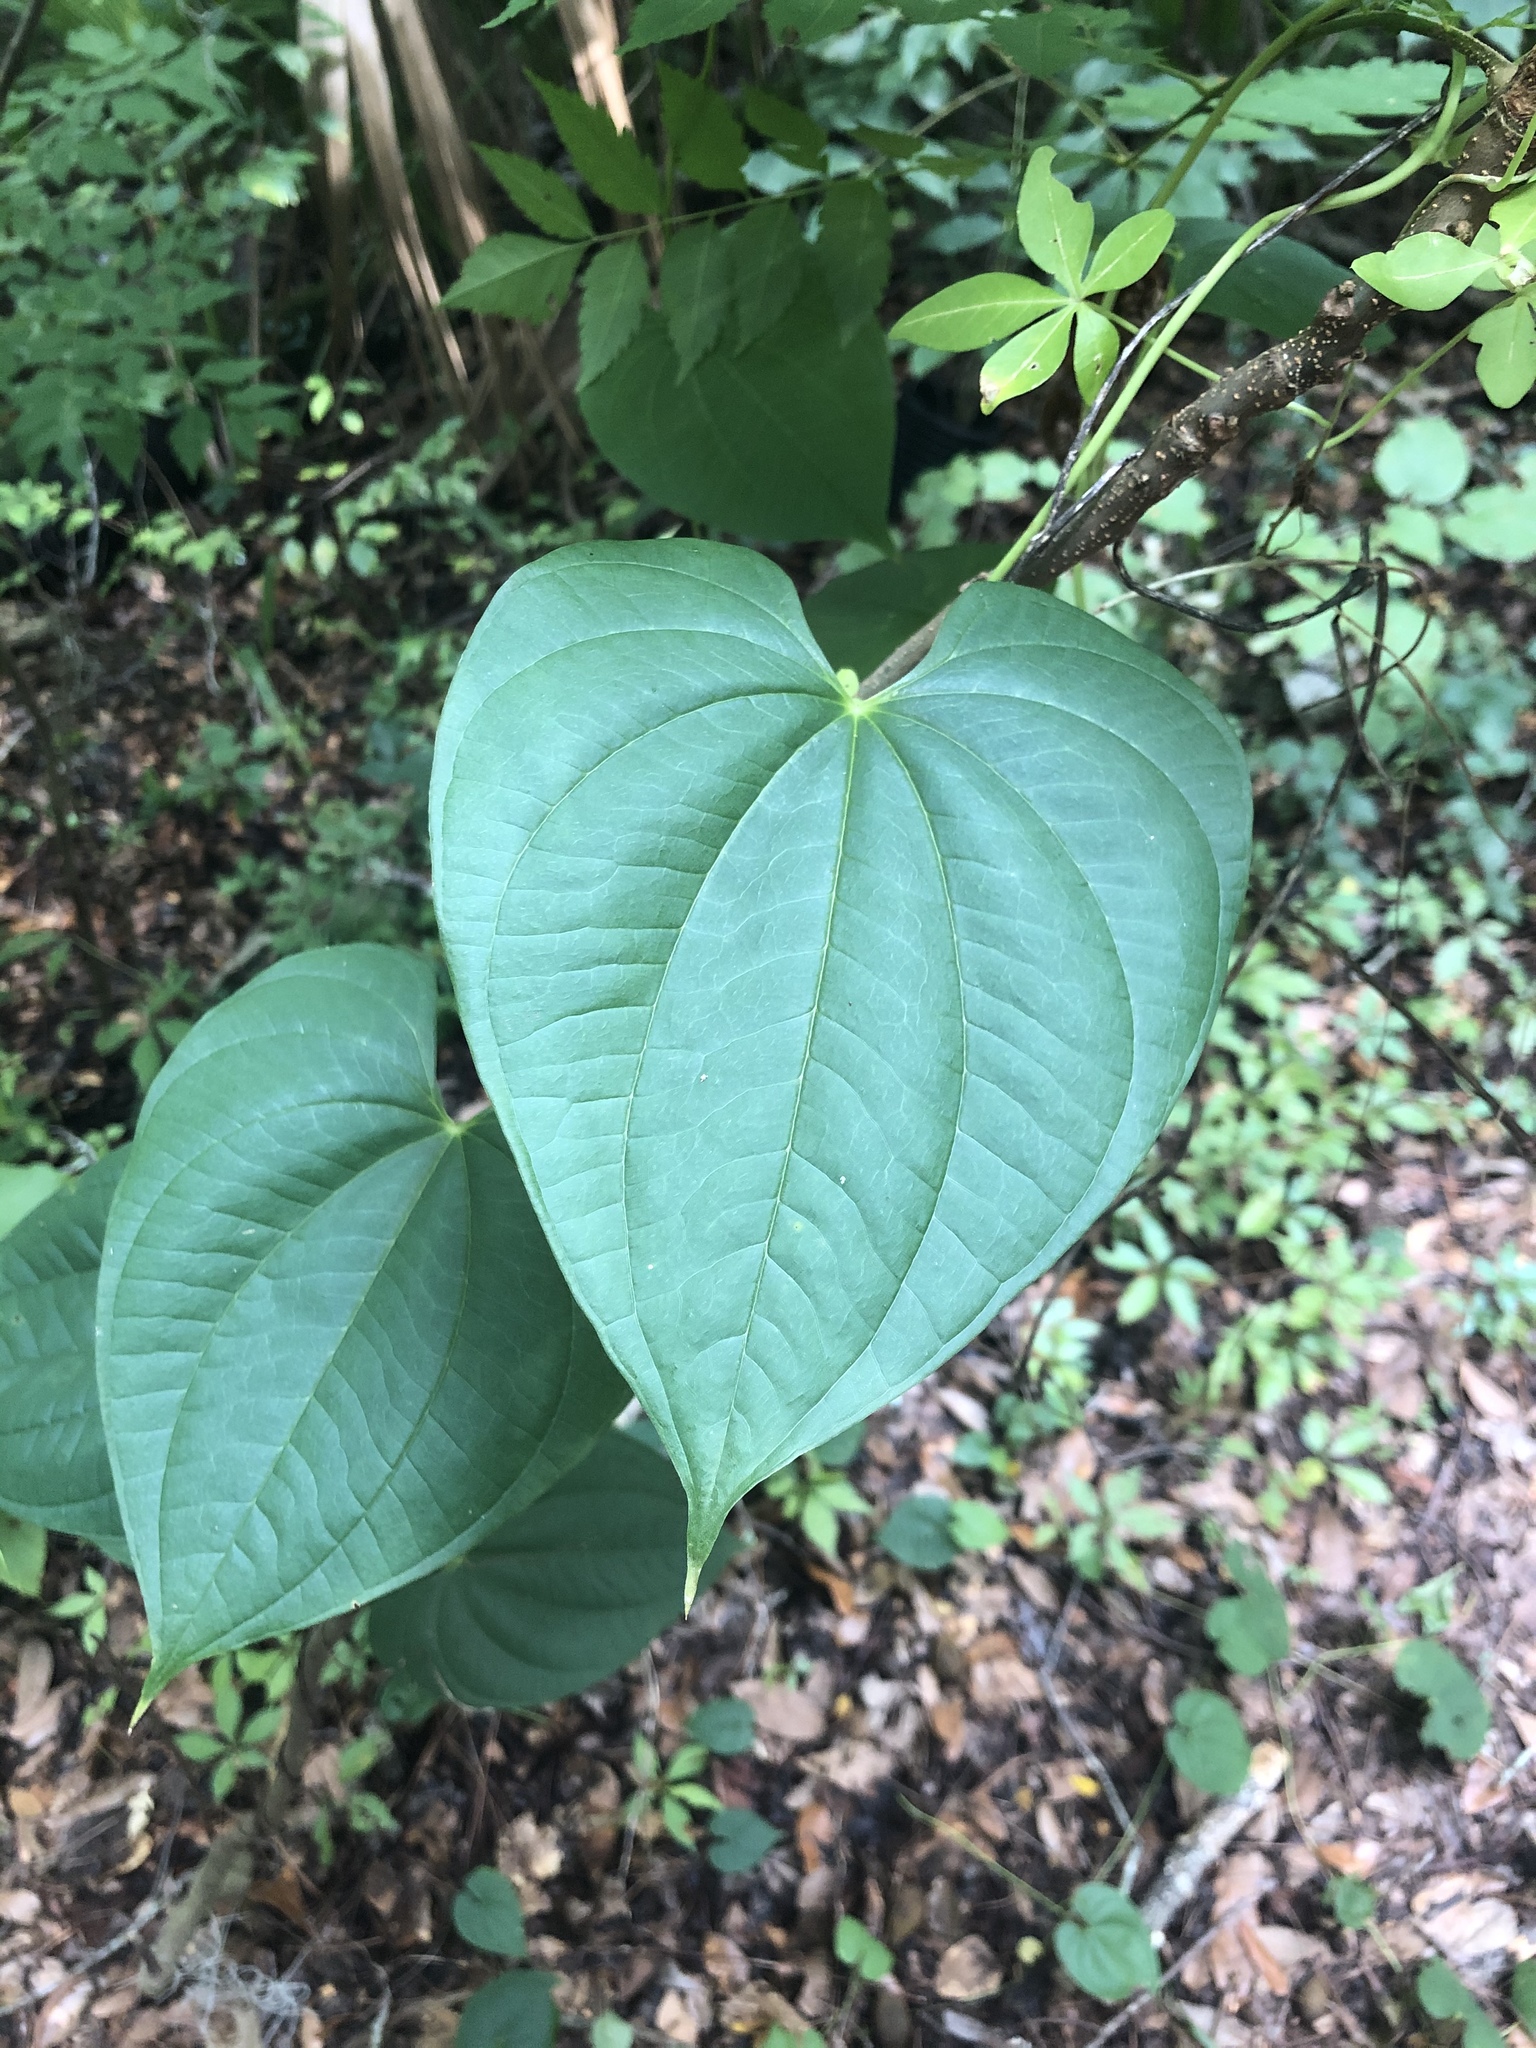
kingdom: Plantae
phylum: Tracheophyta
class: Liliopsida
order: Dioscoreales
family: Dioscoreaceae
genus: Dioscorea
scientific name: Dioscorea bulbifera
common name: Air yam
